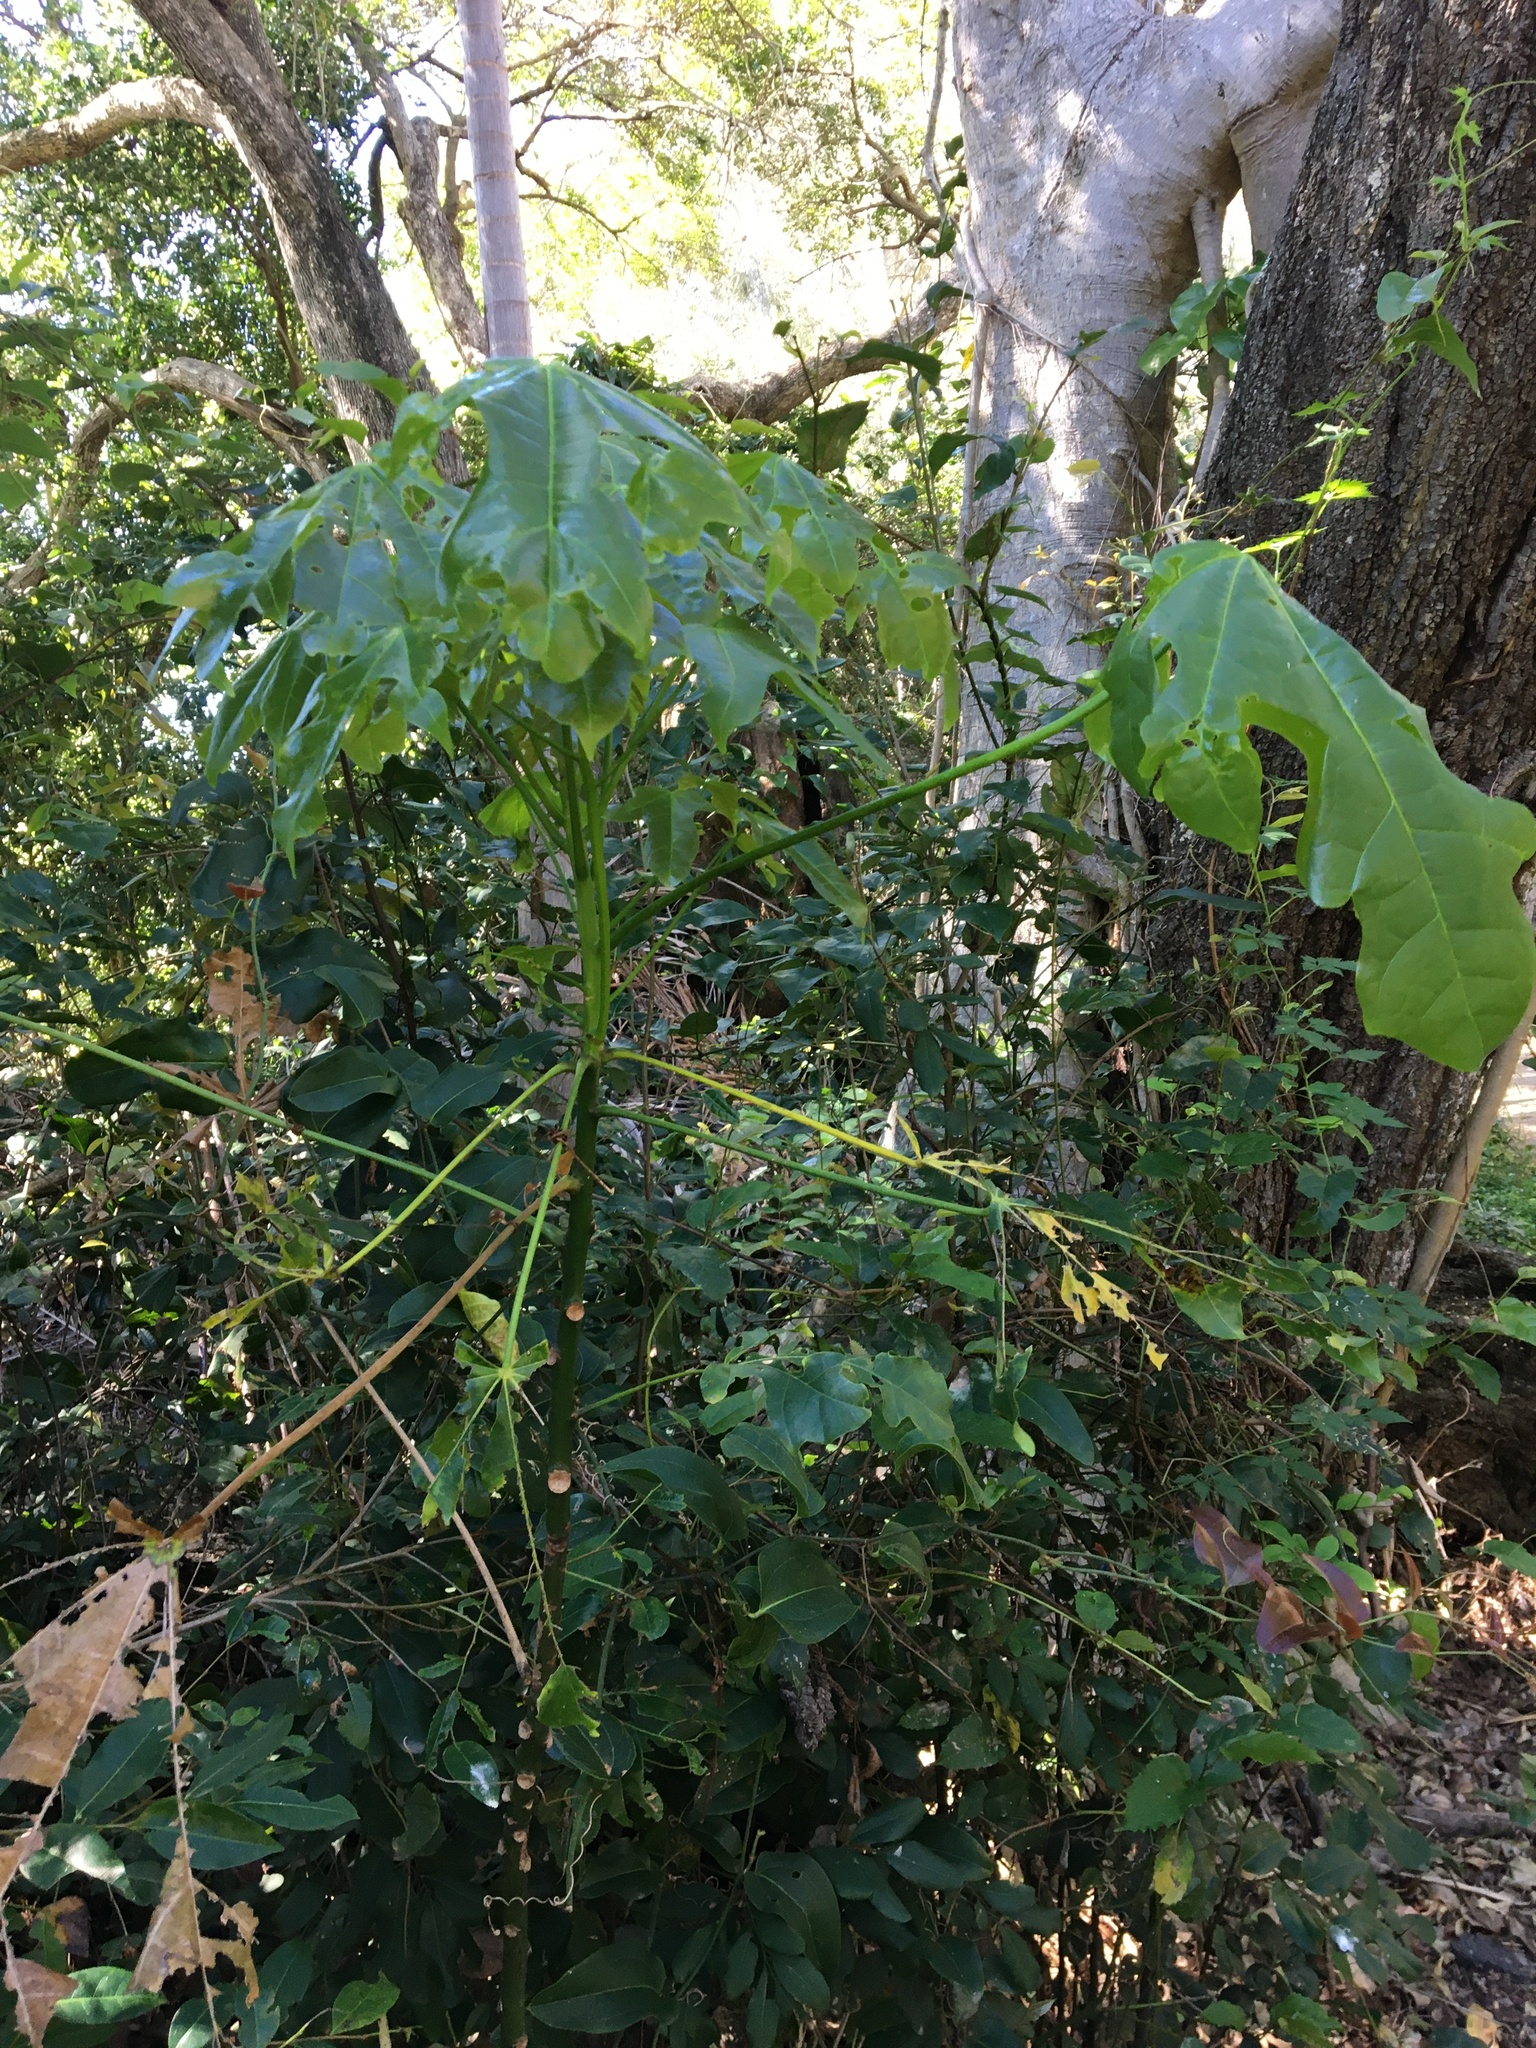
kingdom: Plantae
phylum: Tracheophyta
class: Magnoliopsida
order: Malvales
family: Malvaceae
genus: Brachychiton
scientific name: Brachychiton acerifolius
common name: Illawarra flame tree
